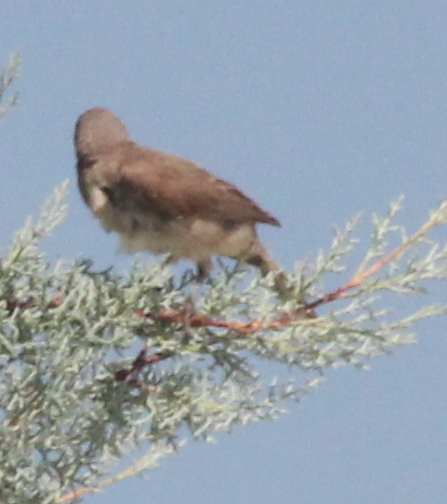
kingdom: Animalia
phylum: Chordata
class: Aves
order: Passeriformes
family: Mimidae
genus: Toxostoma
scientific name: Toxostoma curvirostre
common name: Curve-billed thrasher
